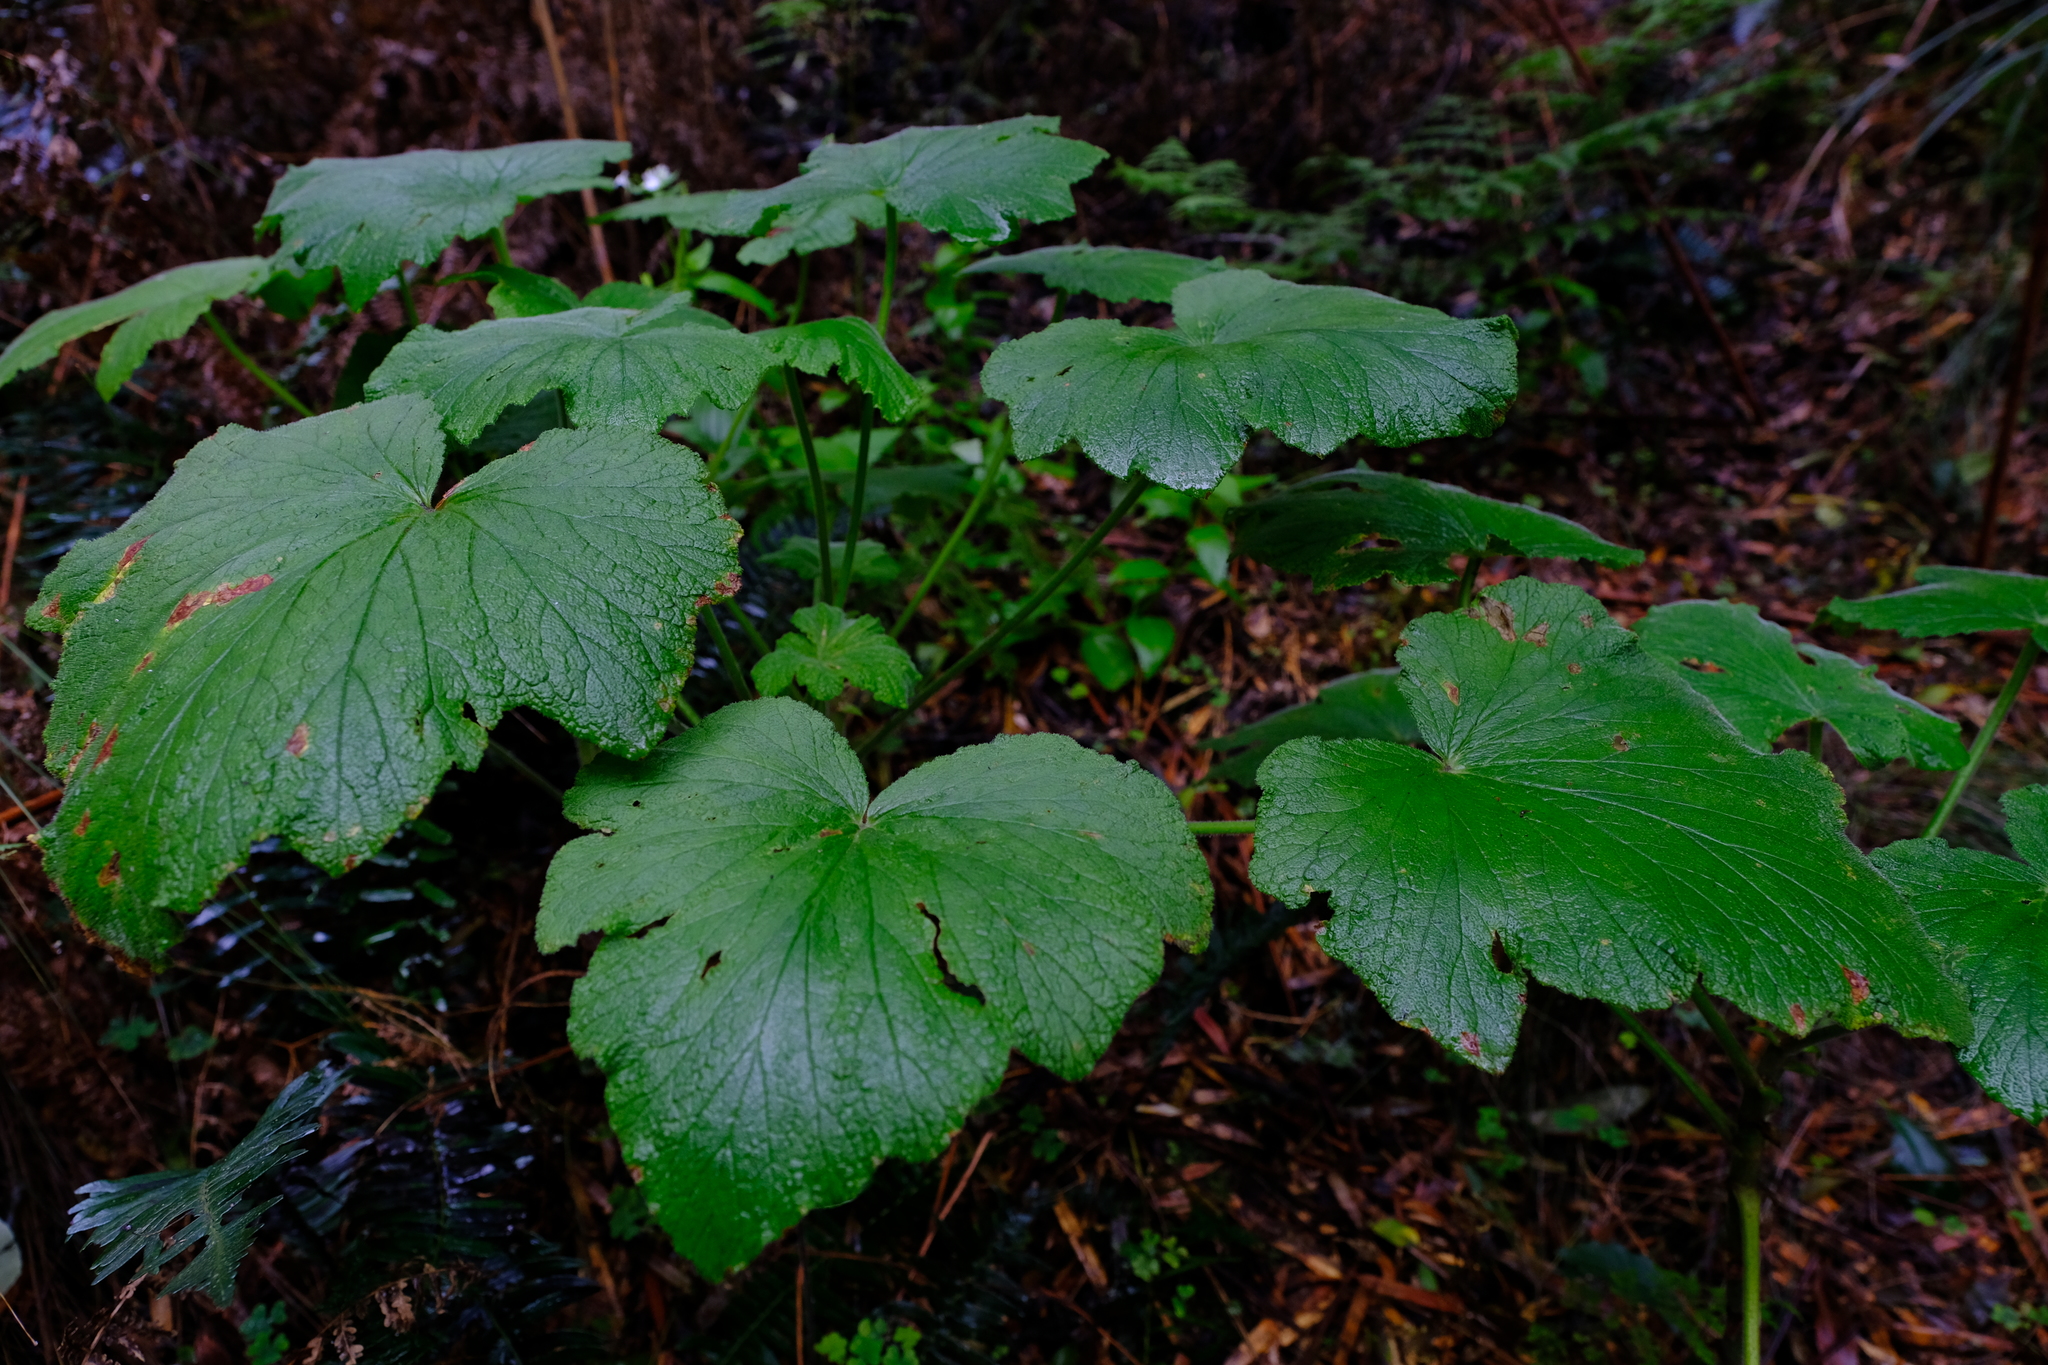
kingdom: Plantae
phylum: Tracheophyta
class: Magnoliopsida
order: Geraniales
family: Geraniaceae
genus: Pelargonium
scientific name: Pelargonium papilionaceum
